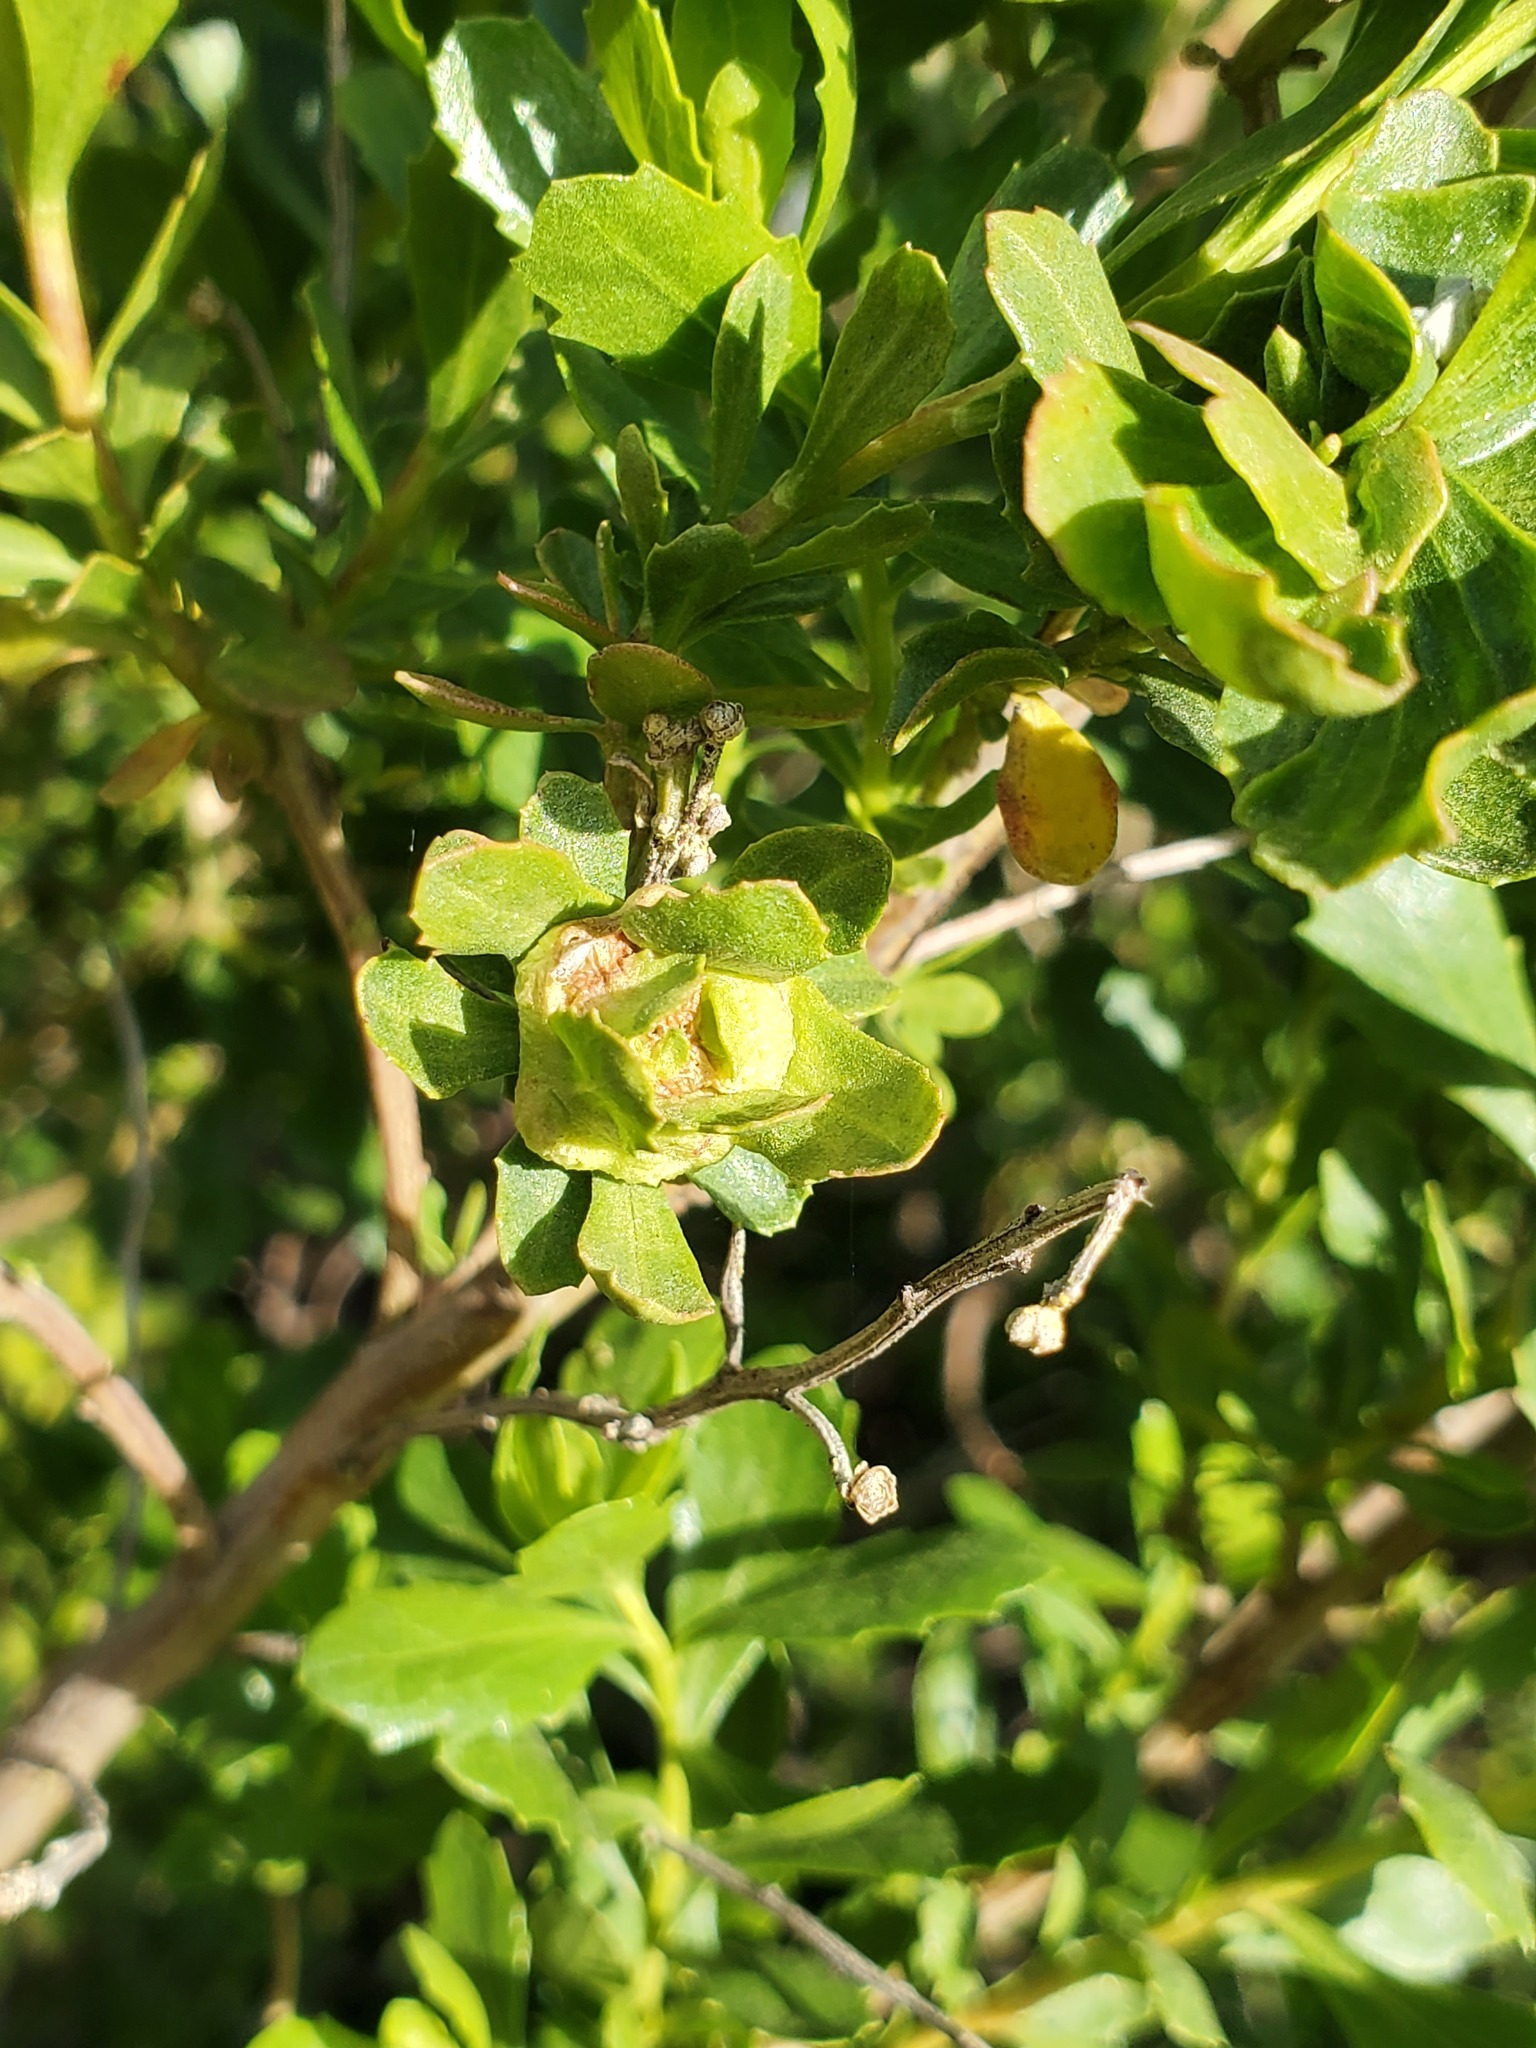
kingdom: Animalia
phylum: Arthropoda
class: Insecta
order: Diptera
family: Cecidomyiidae
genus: Rhopalomyia
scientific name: Rhopalomyia californica
